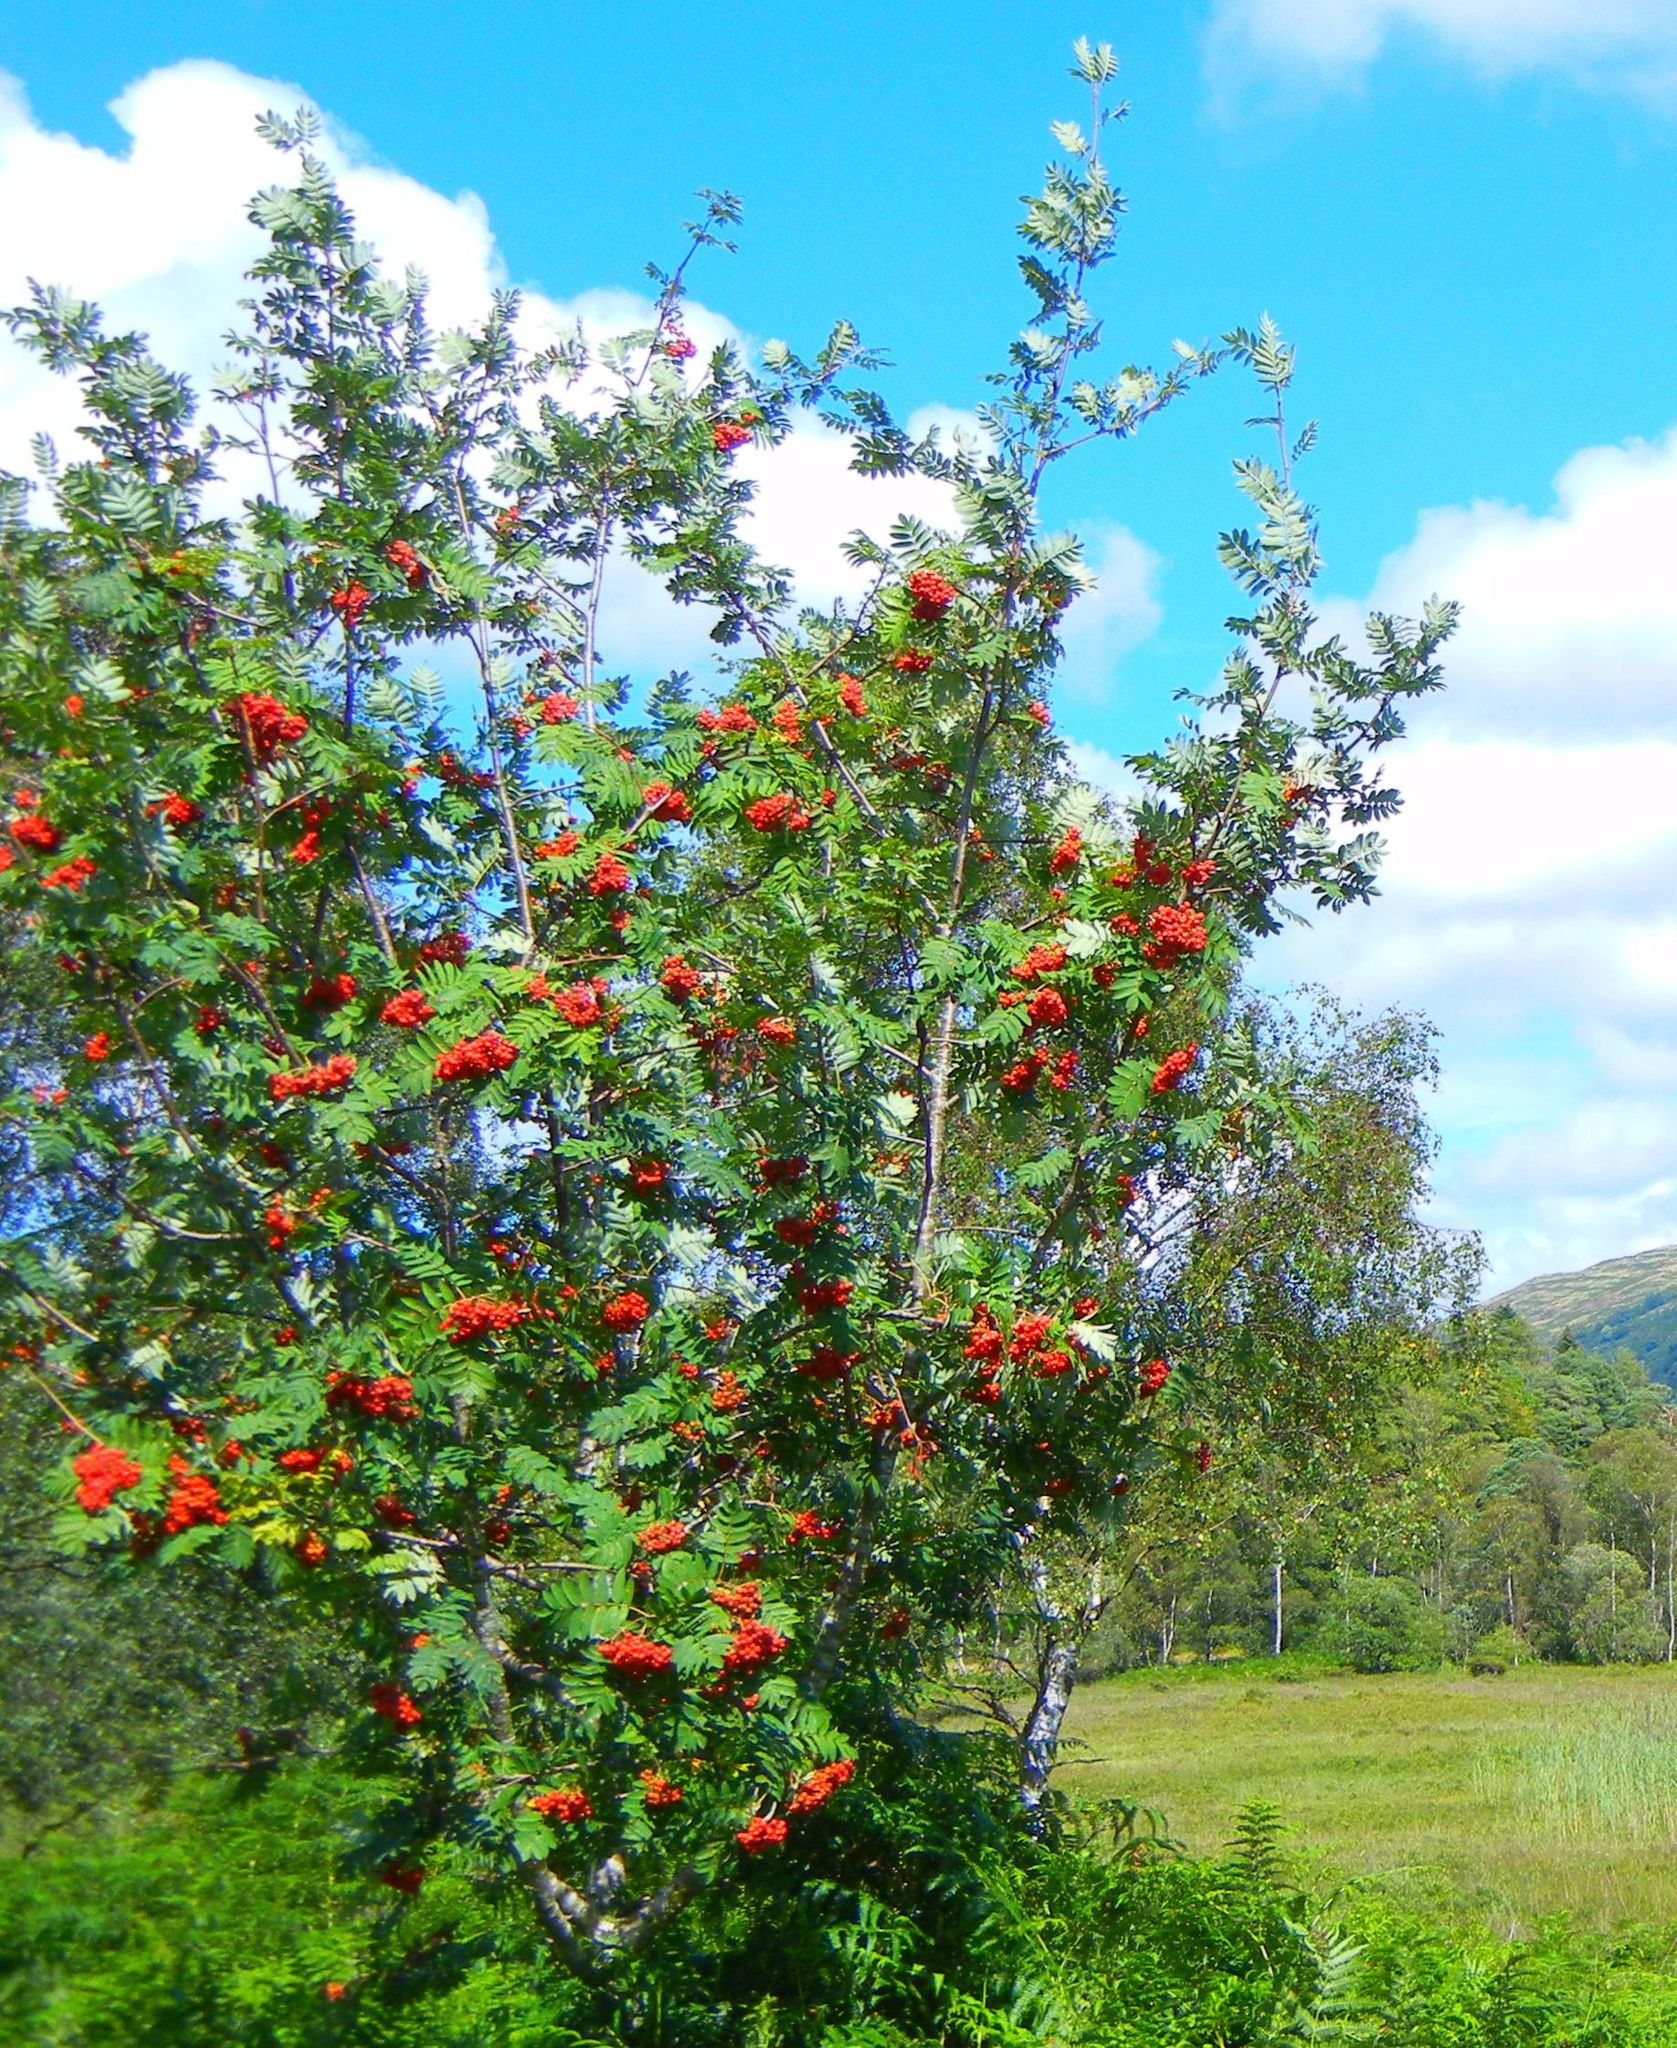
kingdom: Plantae
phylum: Tracheophyta
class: Magnoliopsida
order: Rosales
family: Rosaceae
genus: Sorbus
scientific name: Sorbus aucuparia
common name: Rowan
